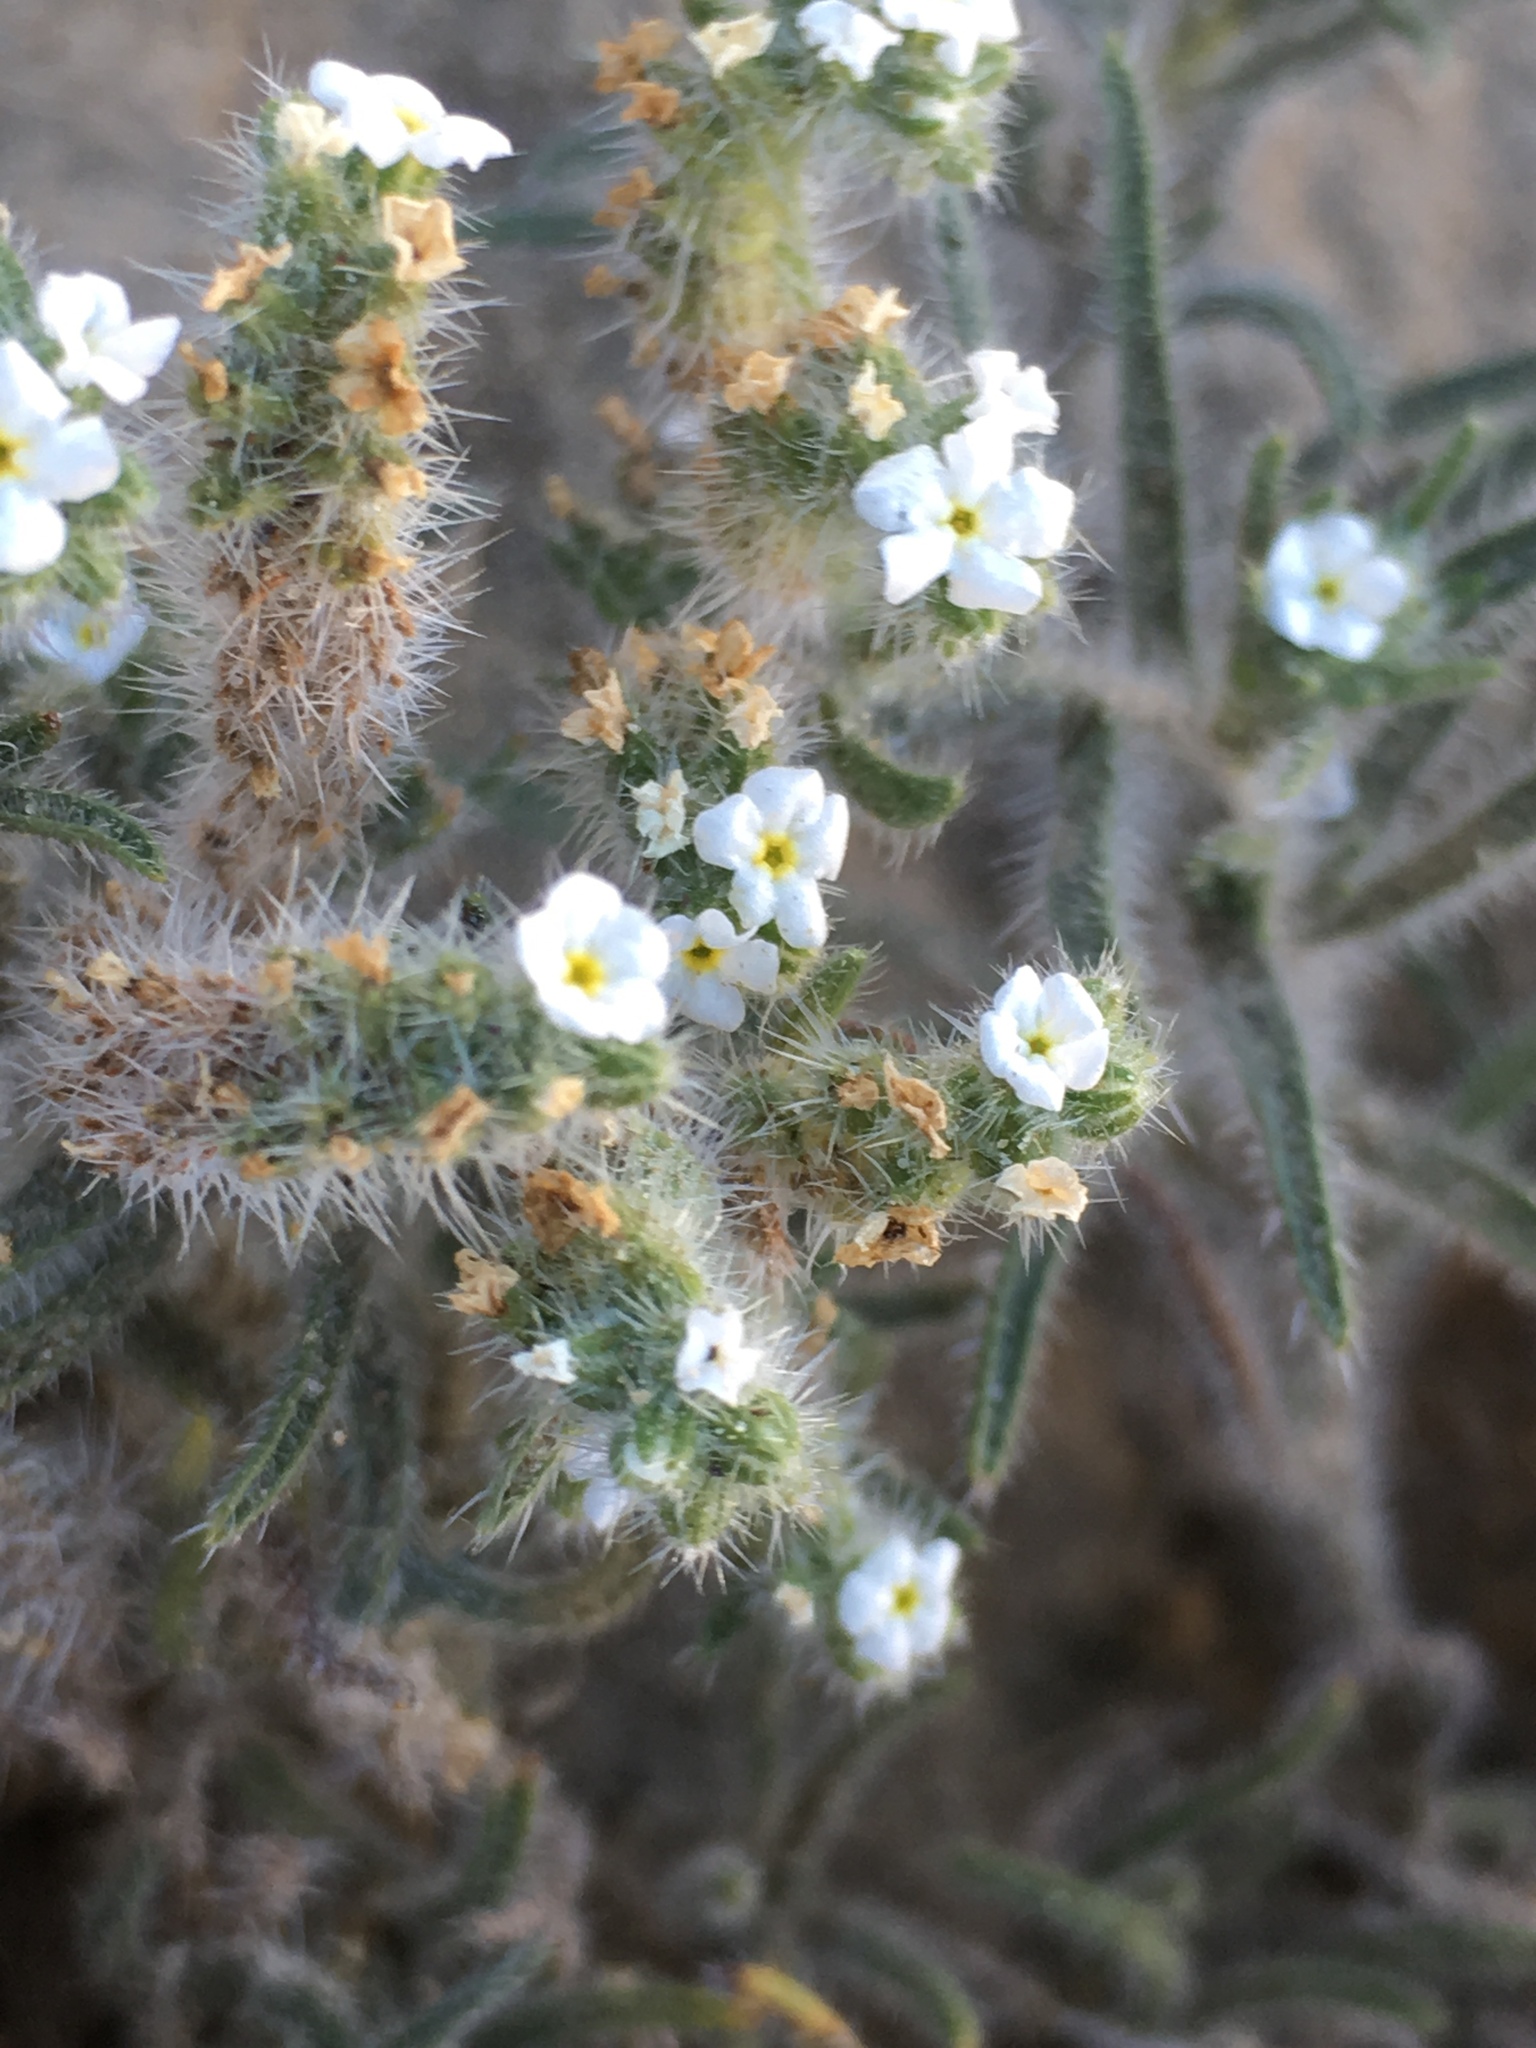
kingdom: Plantae
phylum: Tracheophyta
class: Magnoliopsida
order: Boraginales
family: Boraginaceae
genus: Johnstonella
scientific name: Johnstonella angustifolia
